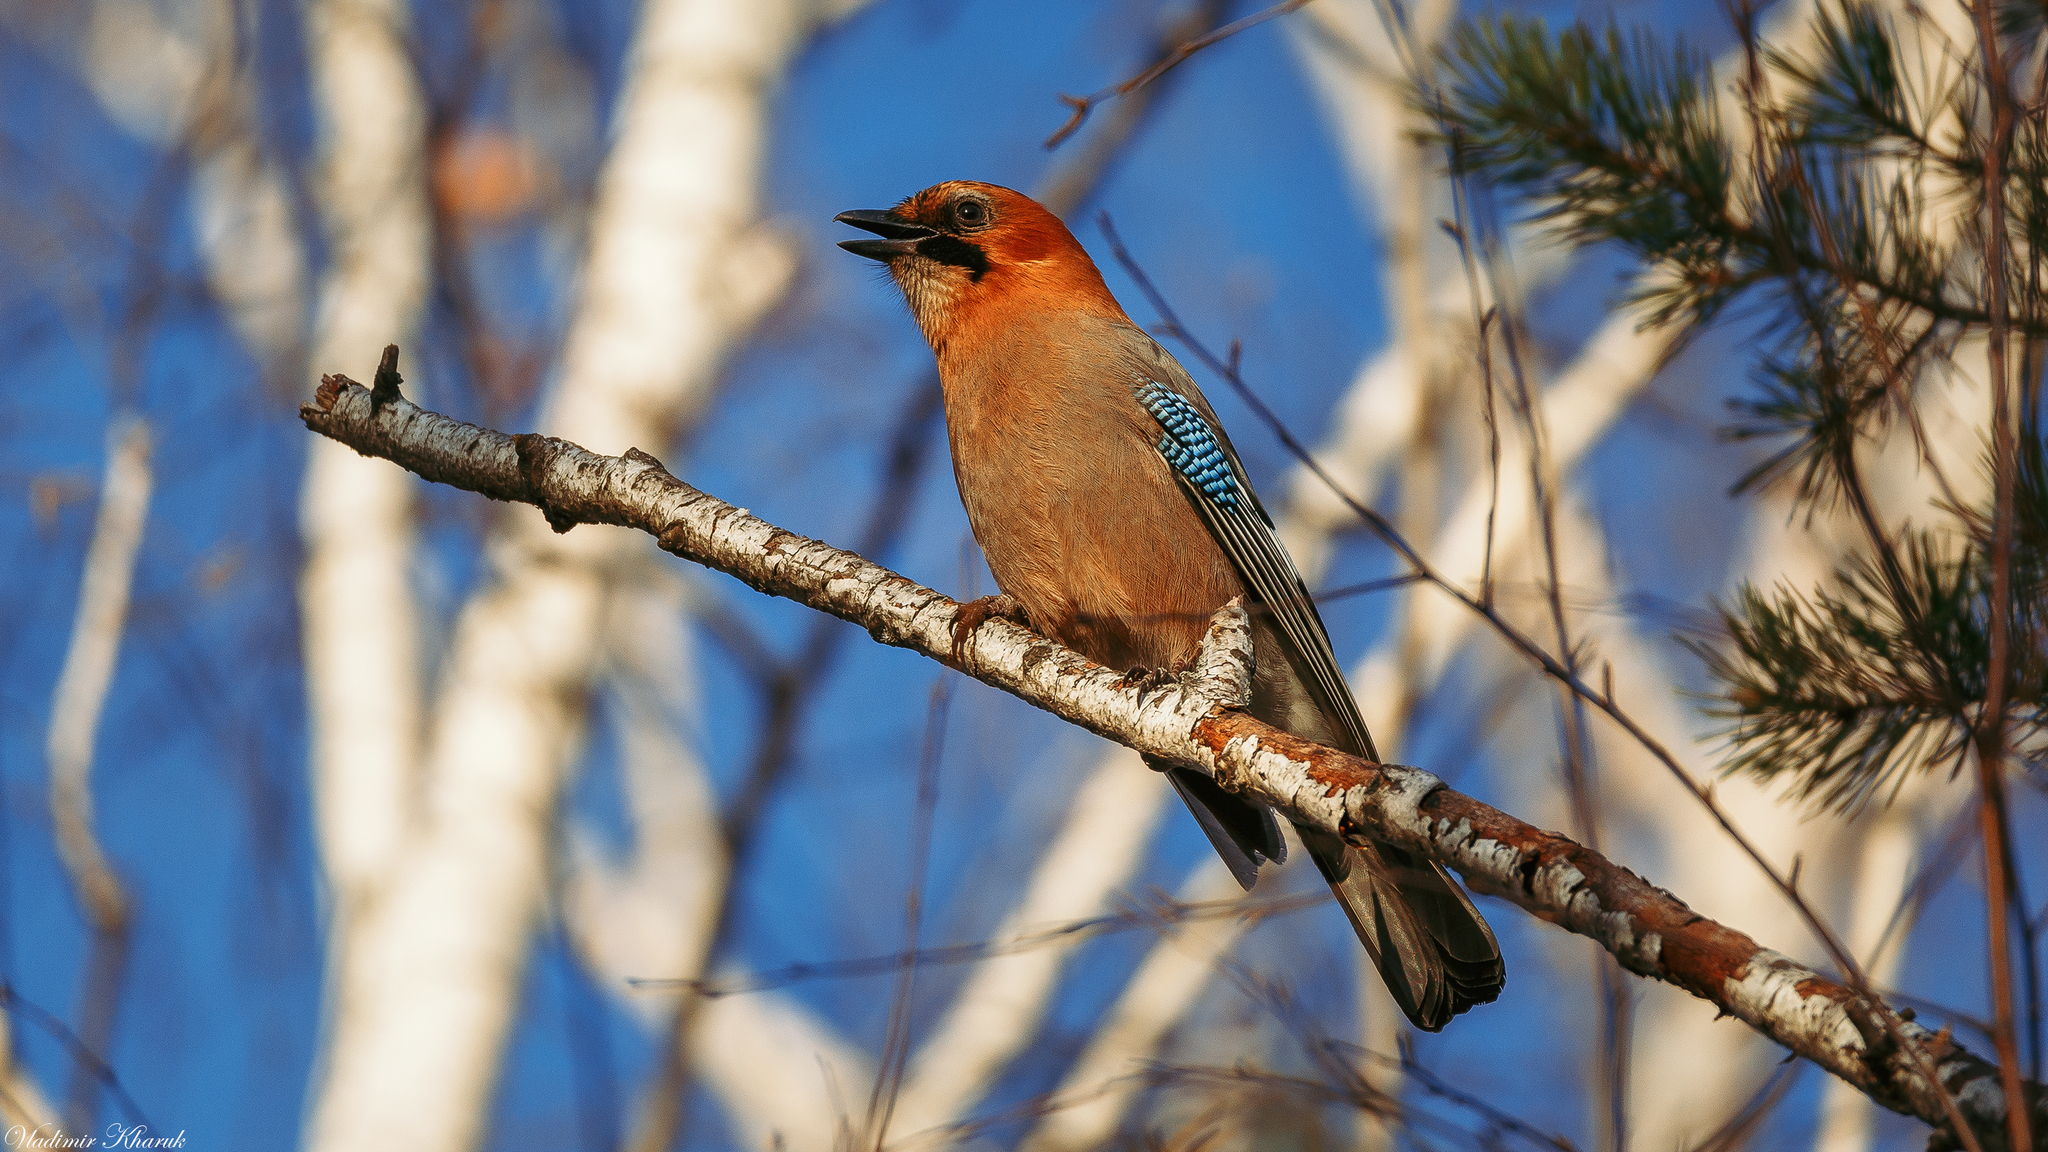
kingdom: Animalia
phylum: Chordata
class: Aves
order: Passeriformes
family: Corvidae
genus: Garrulus
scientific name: Garrulus glandarius
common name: Eurasian jay
